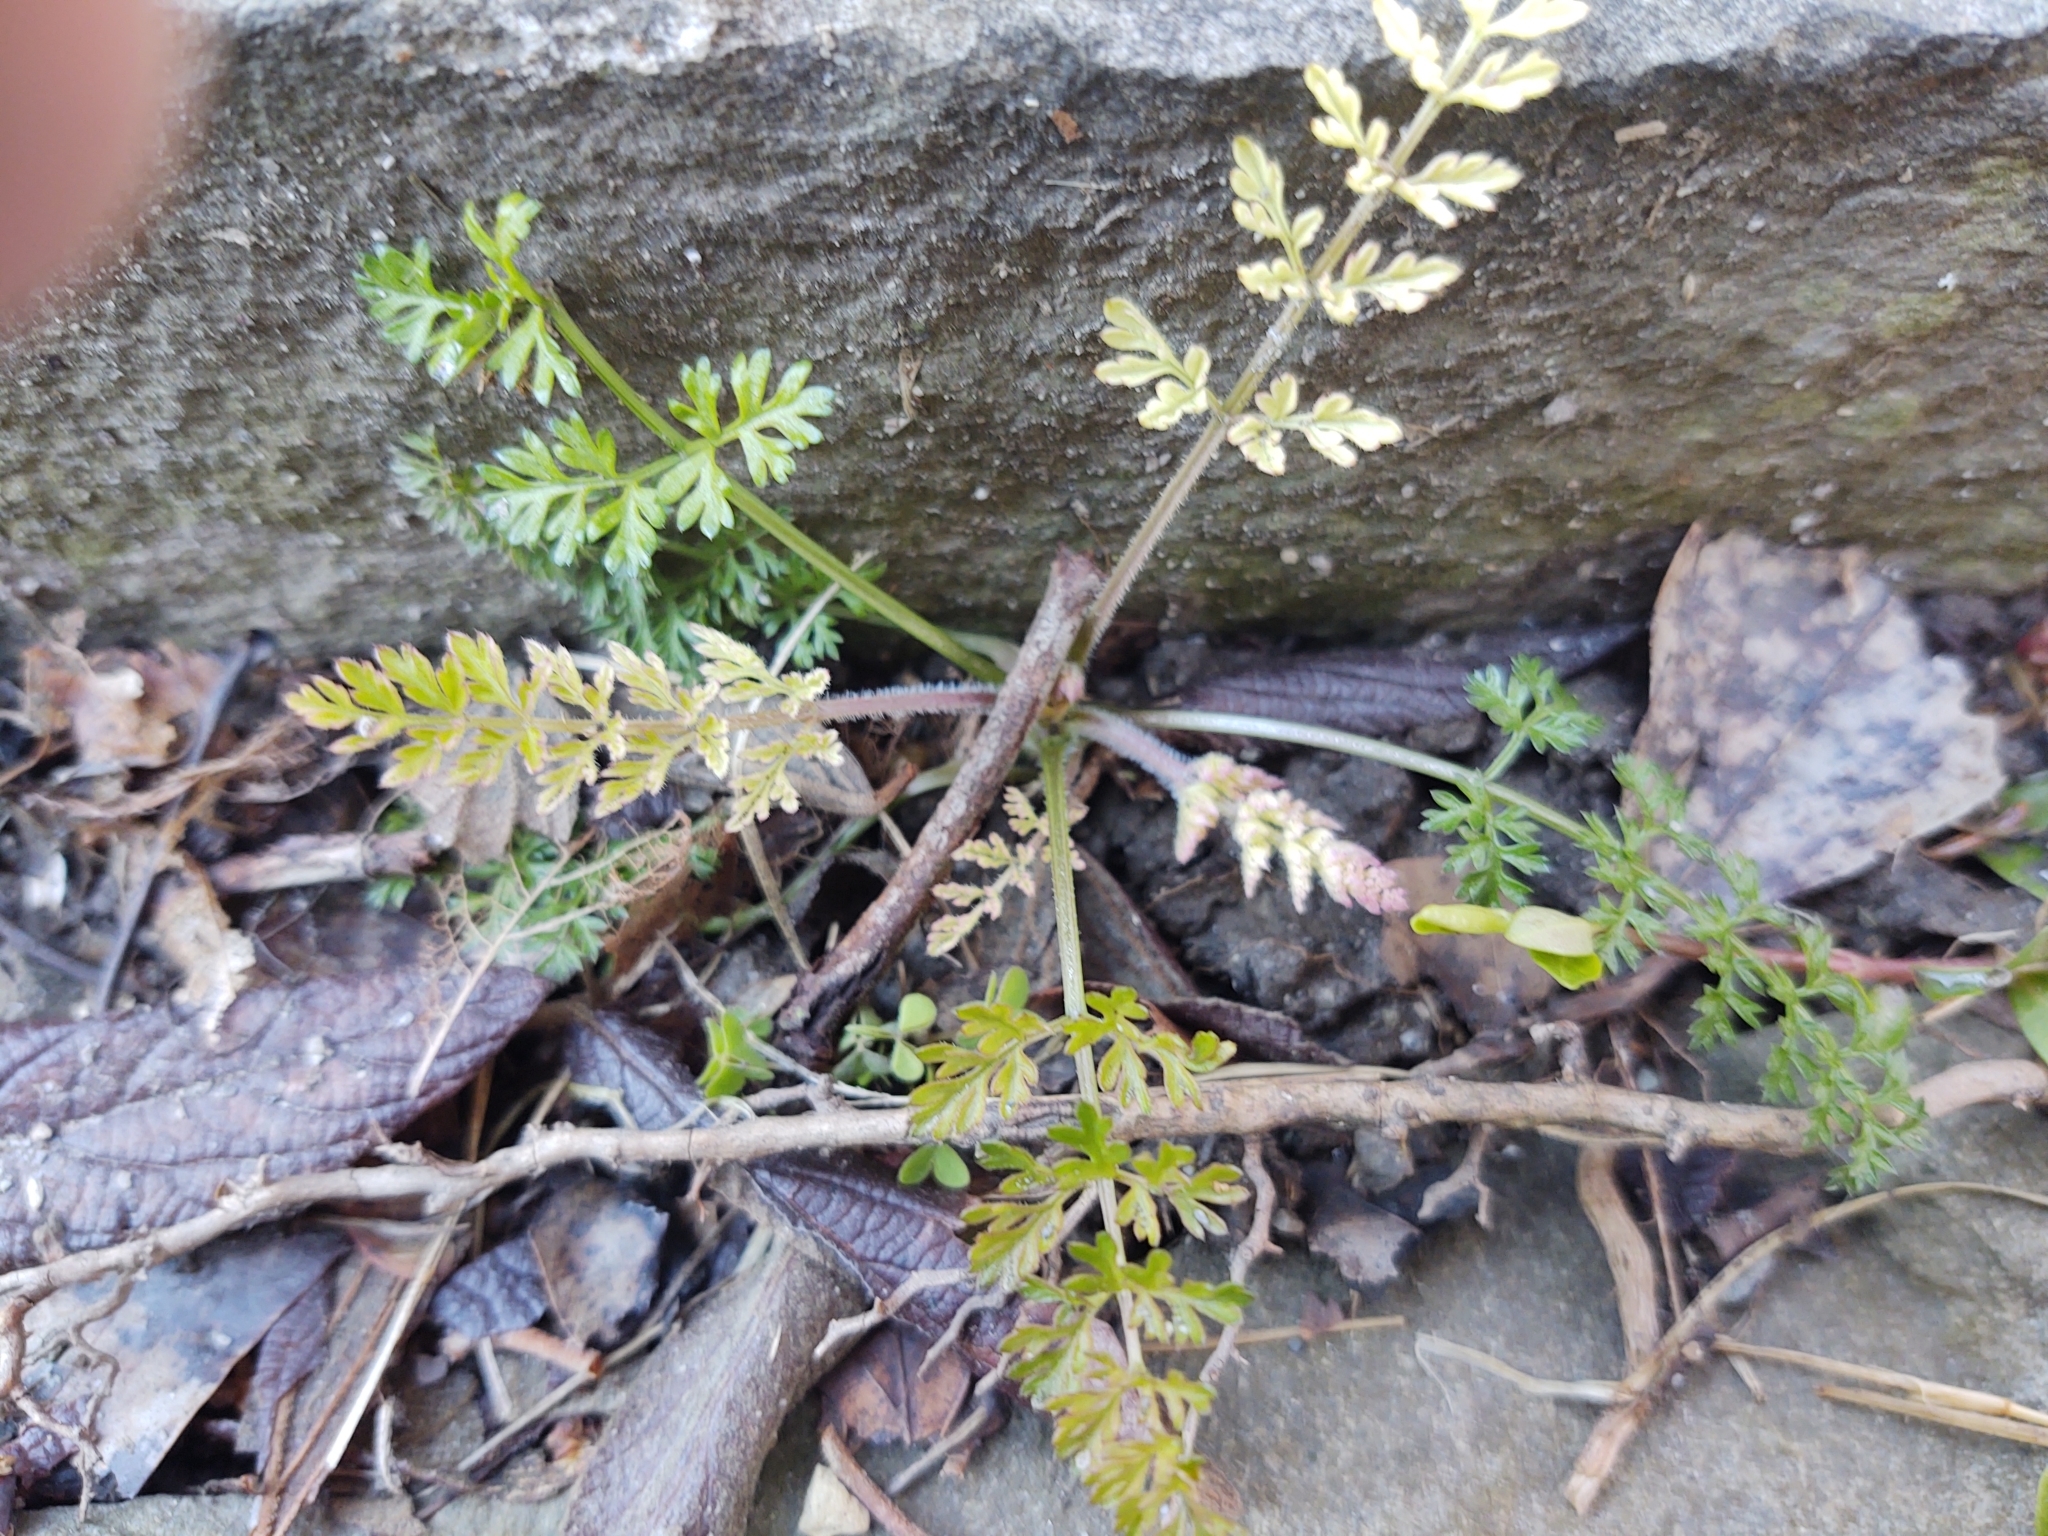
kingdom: Plantae
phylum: Tracheophyta
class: Magnoliopsida
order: Apiales
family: Apiaceae
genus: Daucus
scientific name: Daucus carota
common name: Wild carrot
